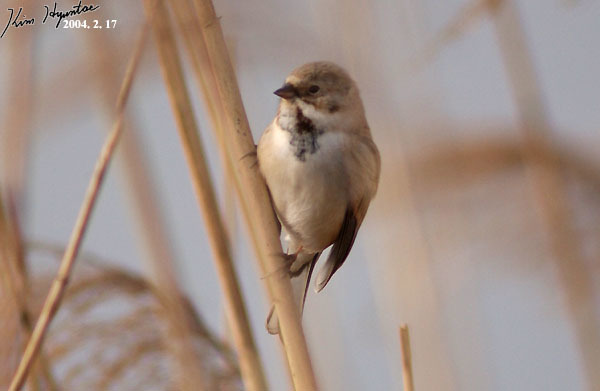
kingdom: Animalia
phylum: Chordata
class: Aves
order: Passeriformes
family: Emberizidae
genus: Emberiza
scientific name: Emberiza pallasi
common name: Pallas's reed bunting
